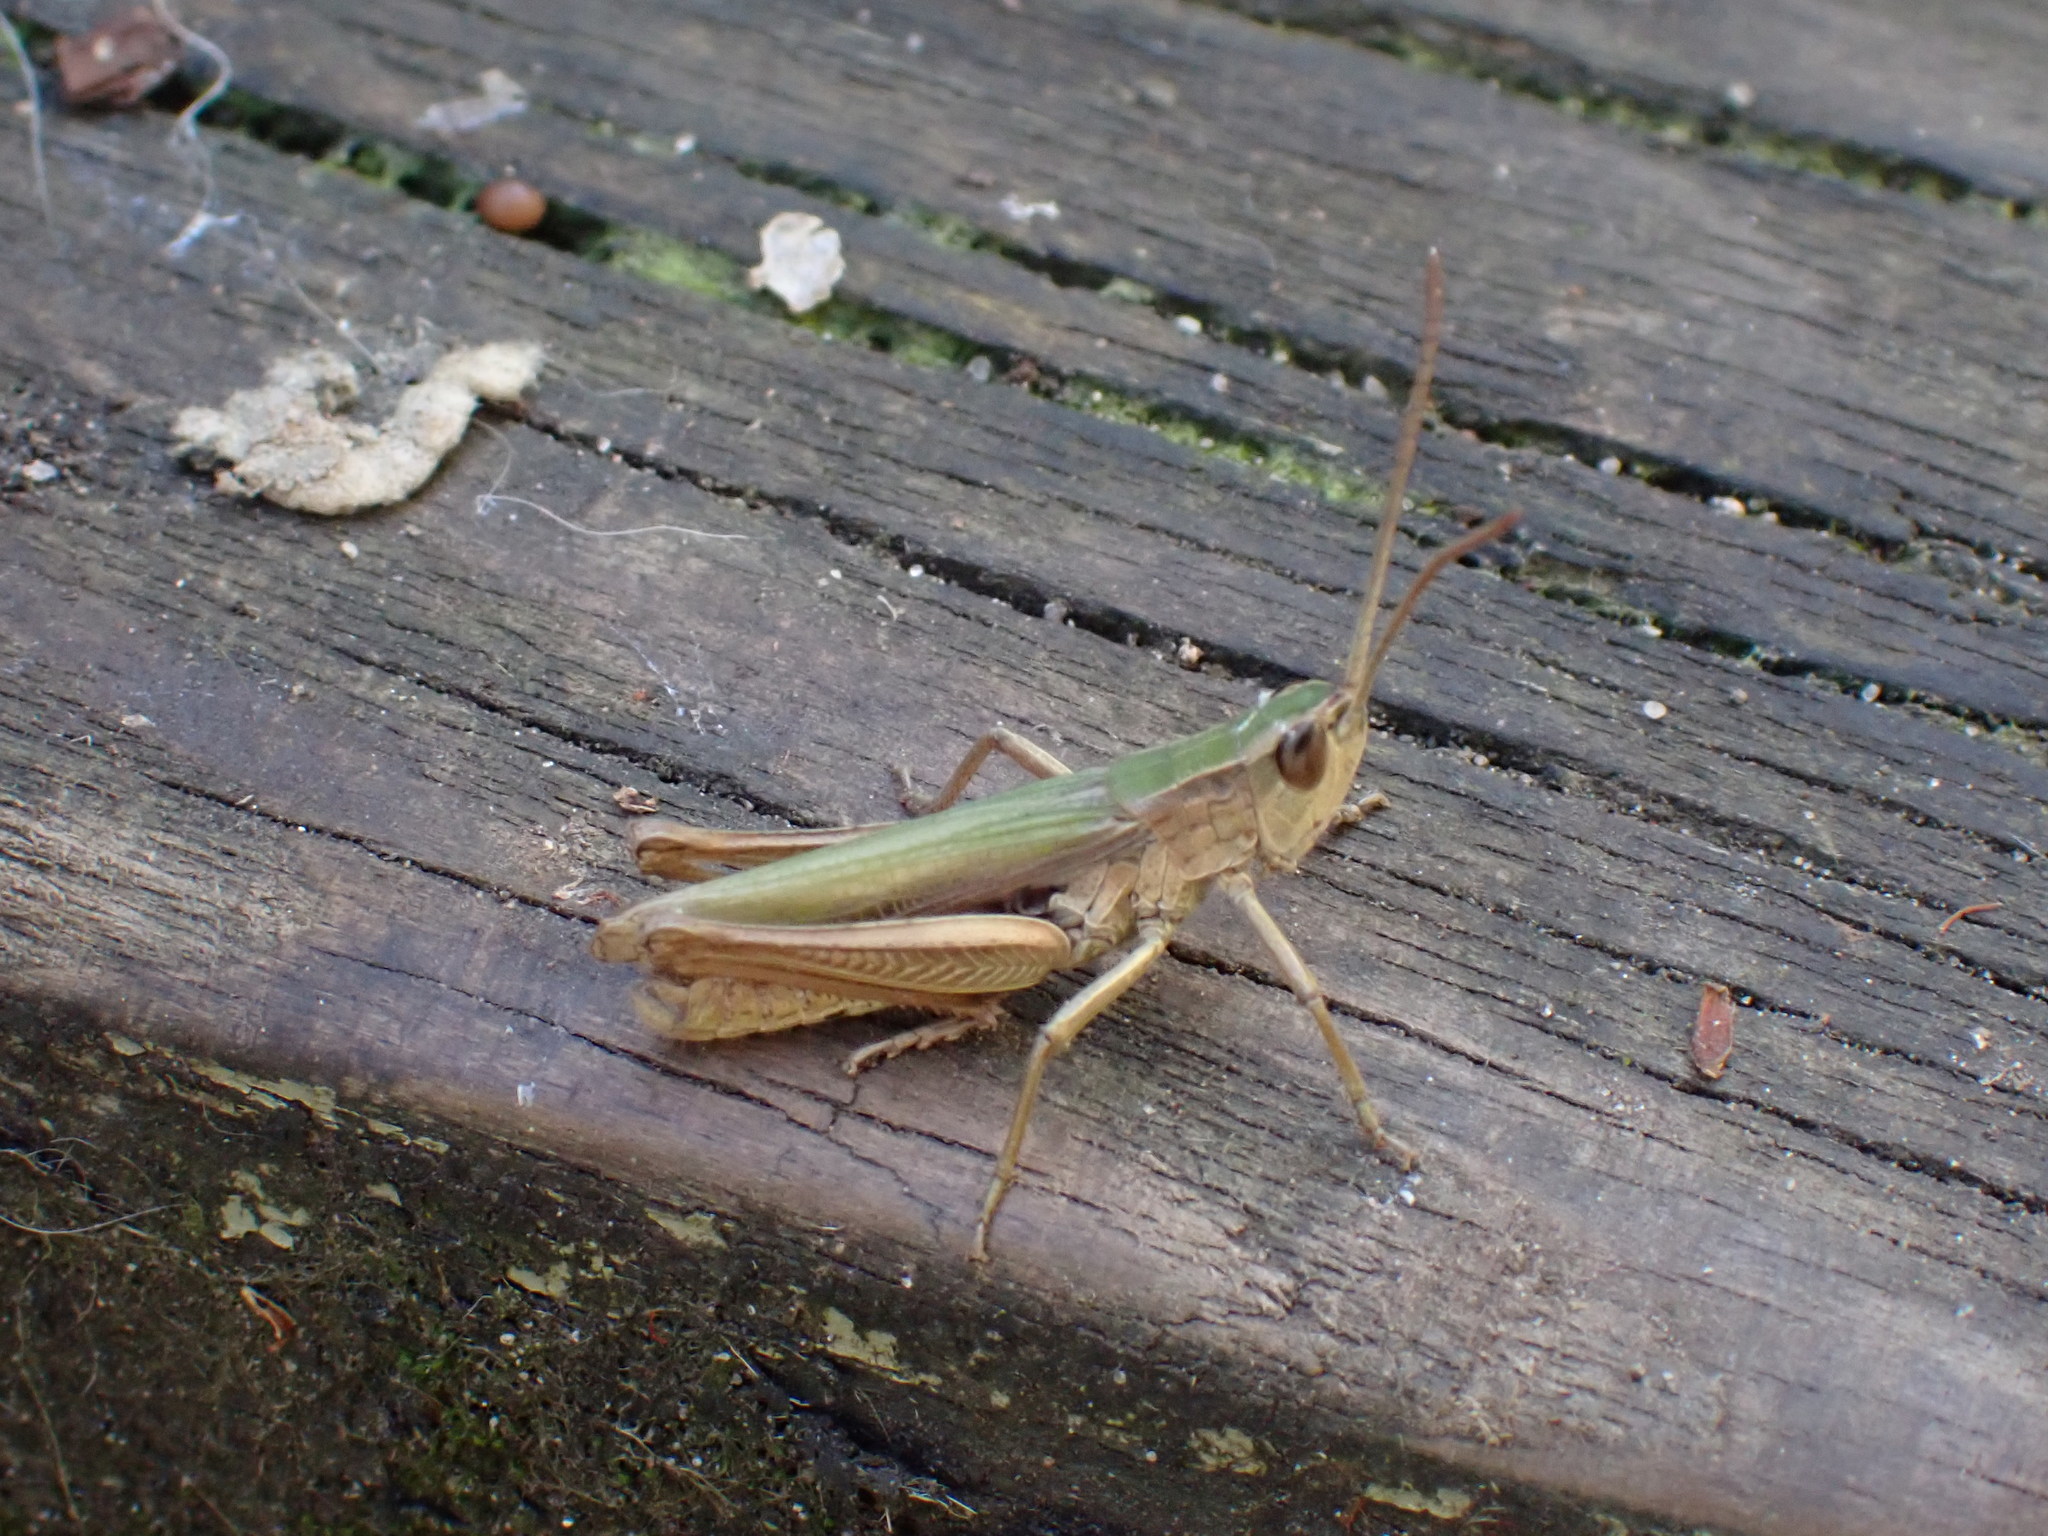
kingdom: Animalia
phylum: Arthropoda
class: Insecta
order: Orthoptera
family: Acrididae
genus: Chorthippus
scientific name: Chorthippus albomarginatus
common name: Lesser marsh grasshopper
